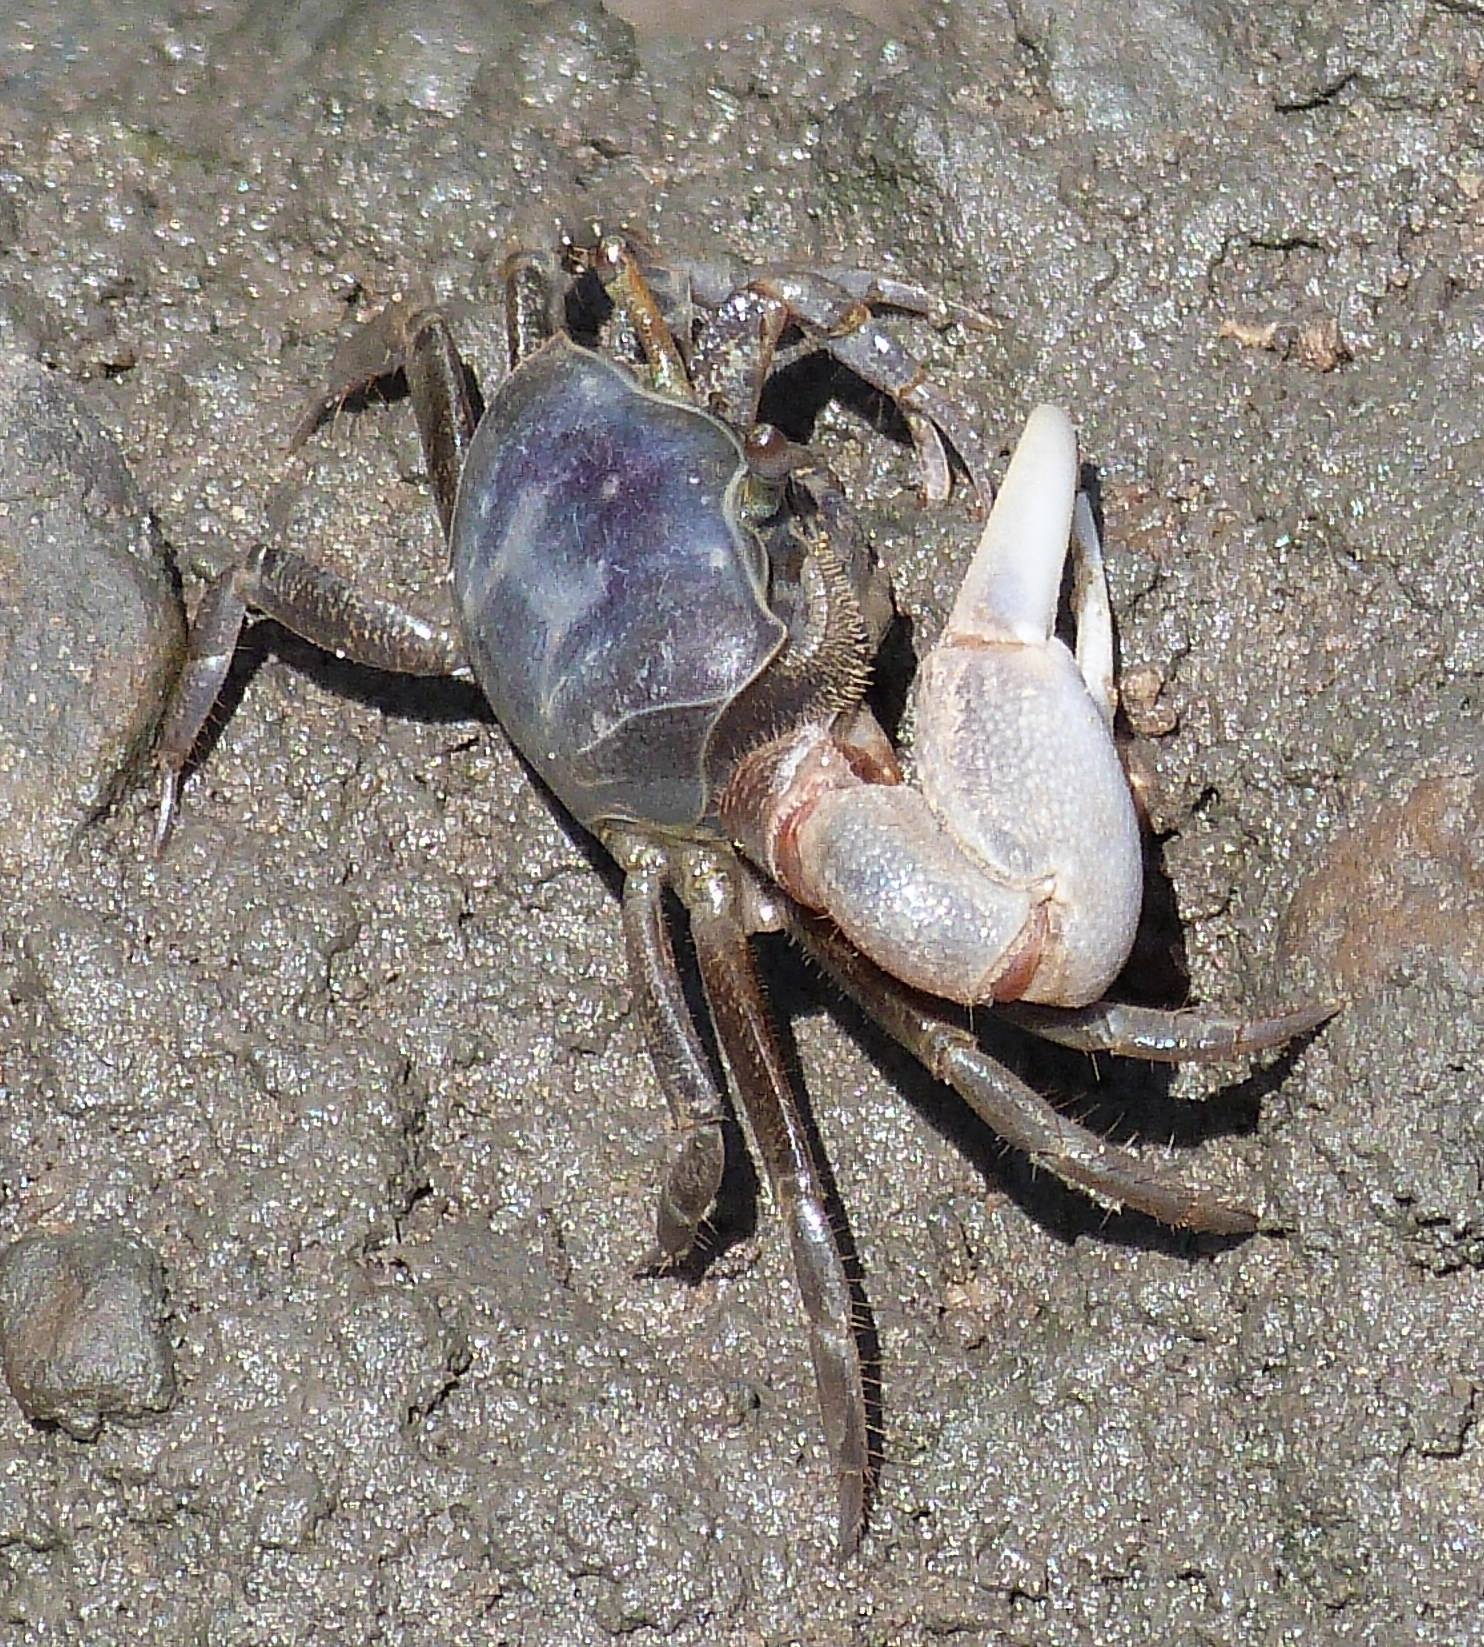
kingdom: Animalia
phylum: Arthropoda
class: Malacostraca
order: Decapoda
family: Ocypodidae
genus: Leptuca
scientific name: Leptuca pugilator
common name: Atlantic sand fiddler crab
